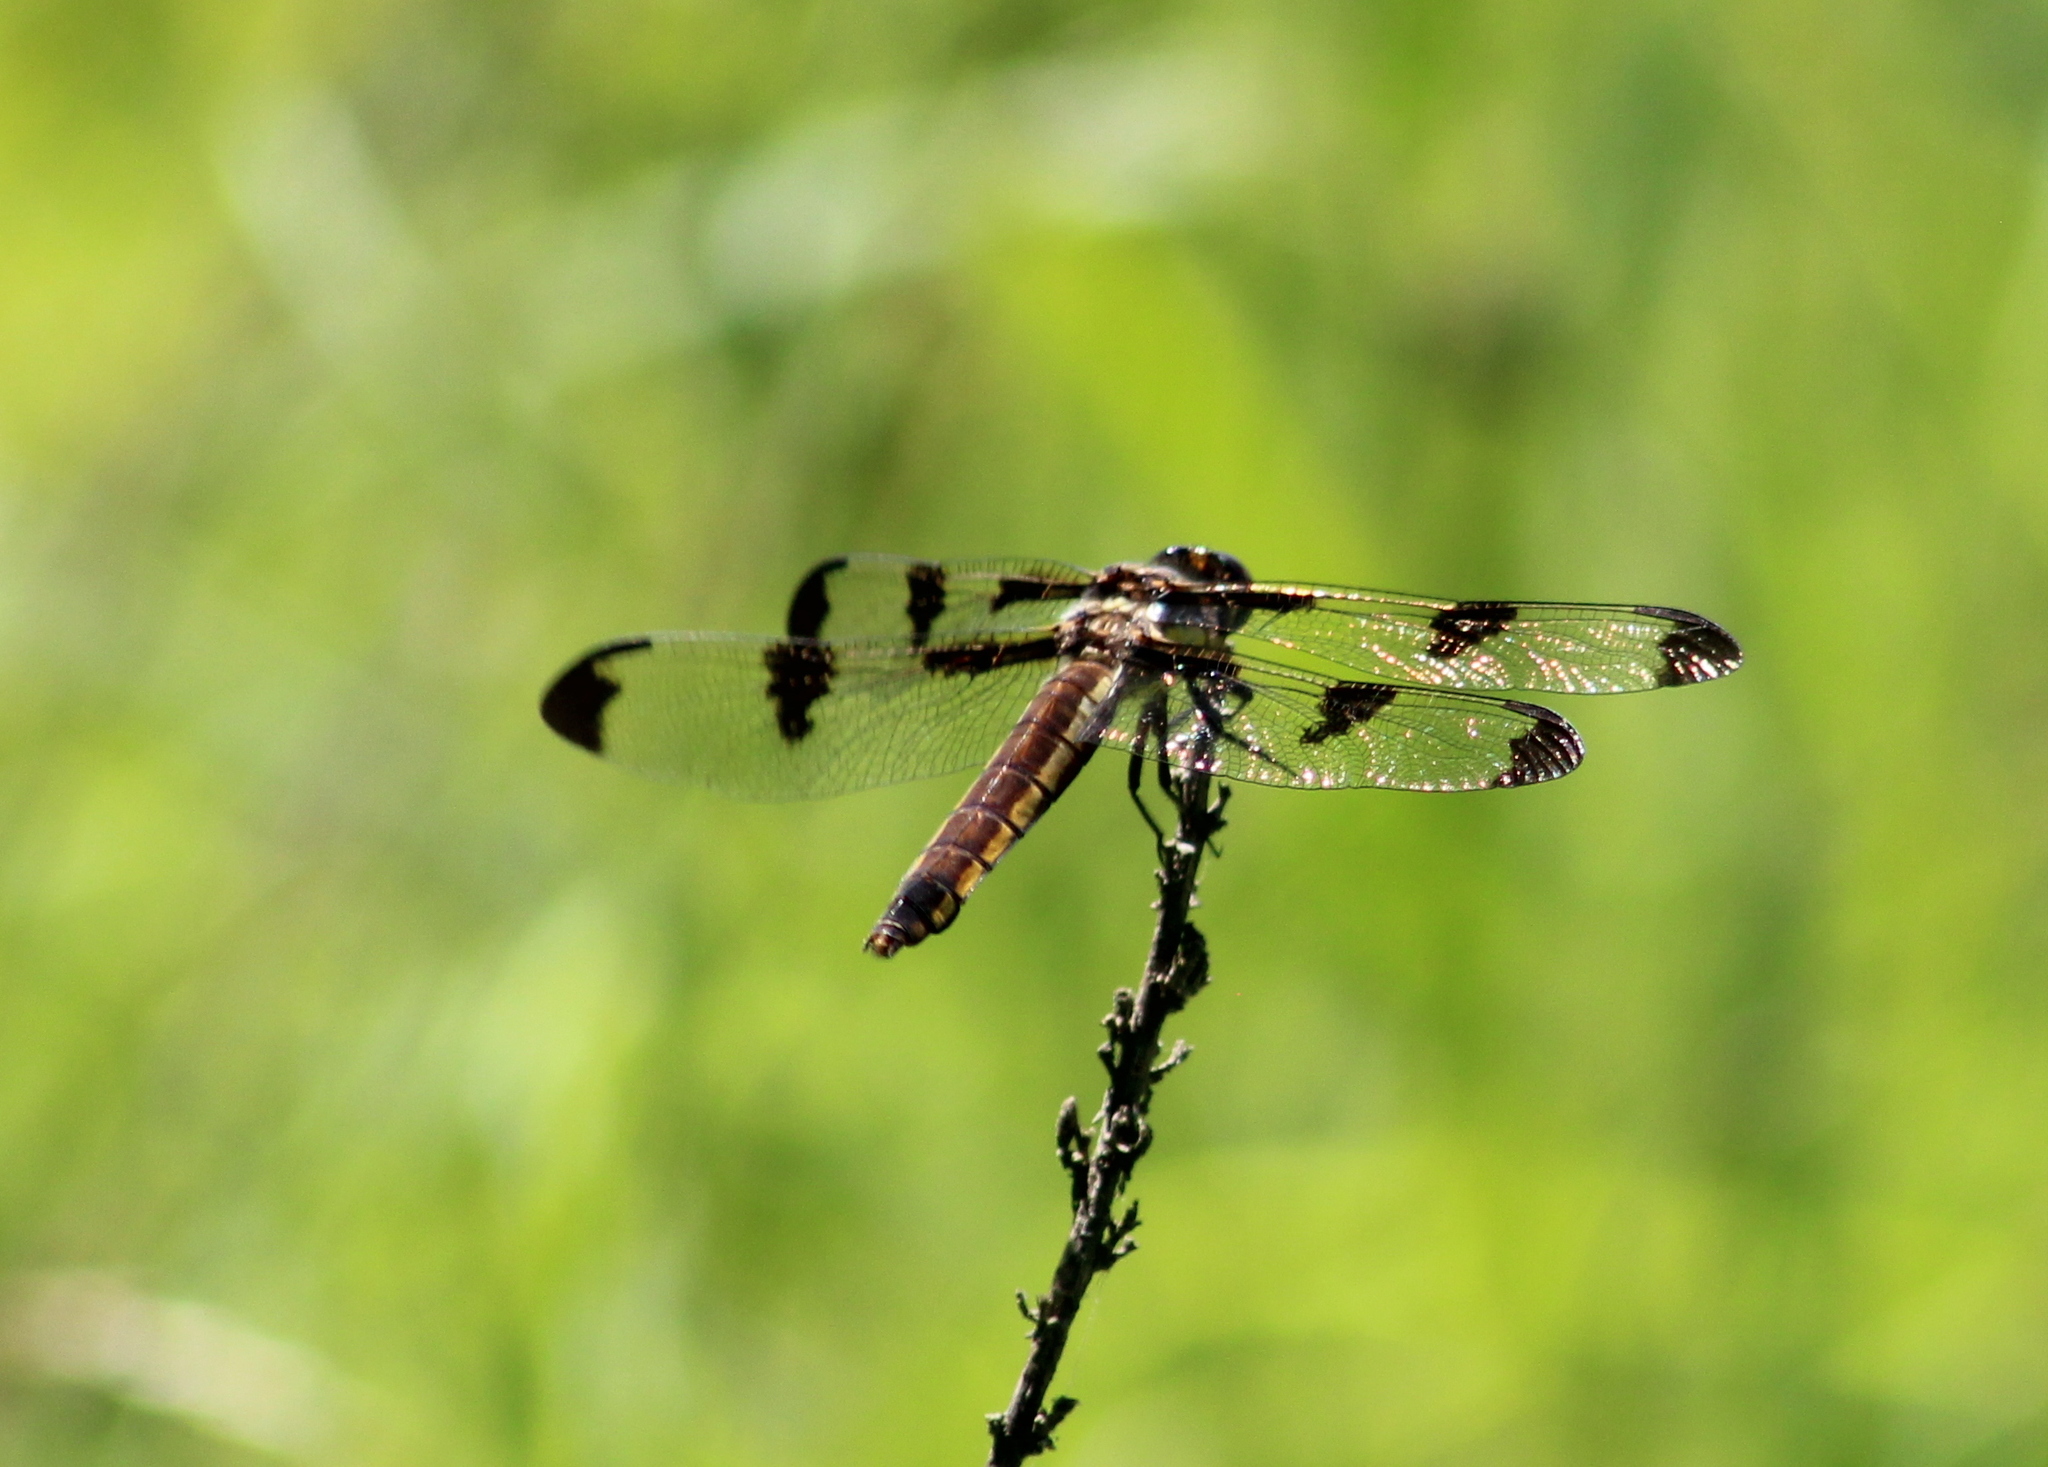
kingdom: Animalia
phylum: Arthropoda
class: Insecta
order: Odonata
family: Libellulidae
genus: Libellula
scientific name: Libellula pulchella
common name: Twelve-spotted skimmer
